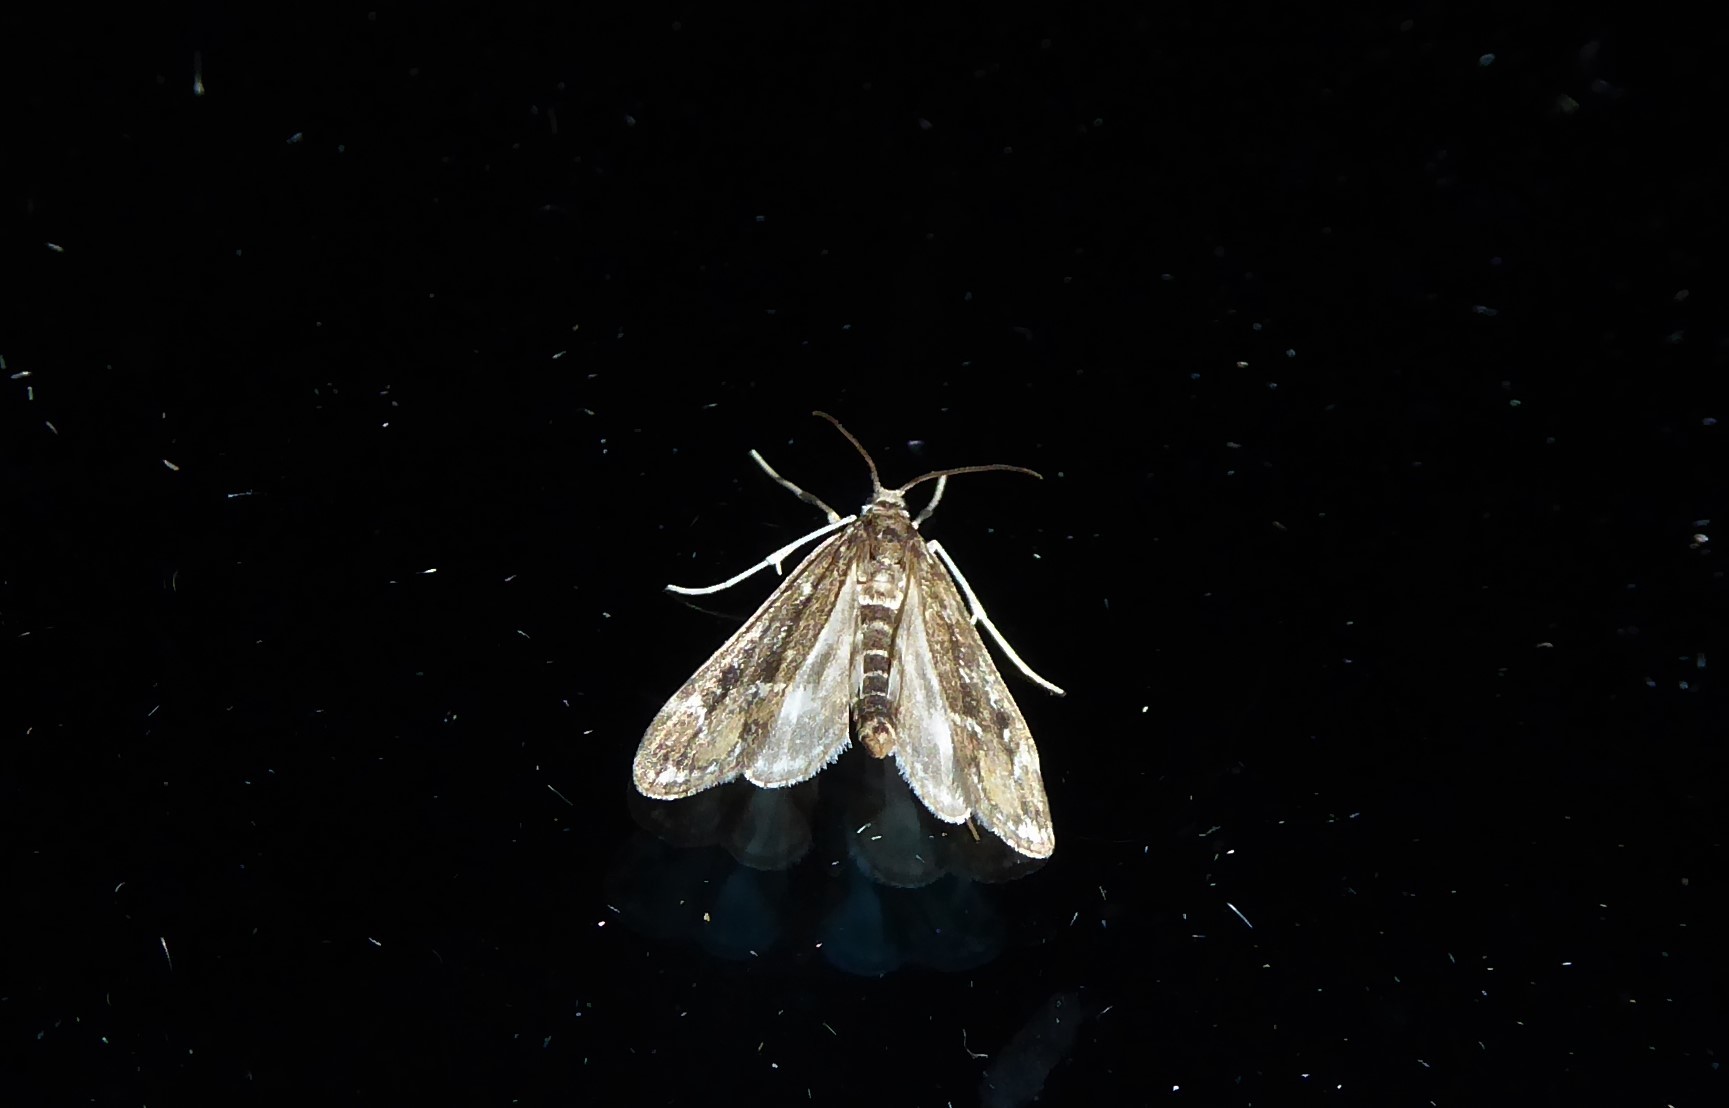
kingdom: Animalia
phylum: Arthropoda
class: Insecta
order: Lepidoptera
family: Crambidae
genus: Hygraula
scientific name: Hygraula nitens
